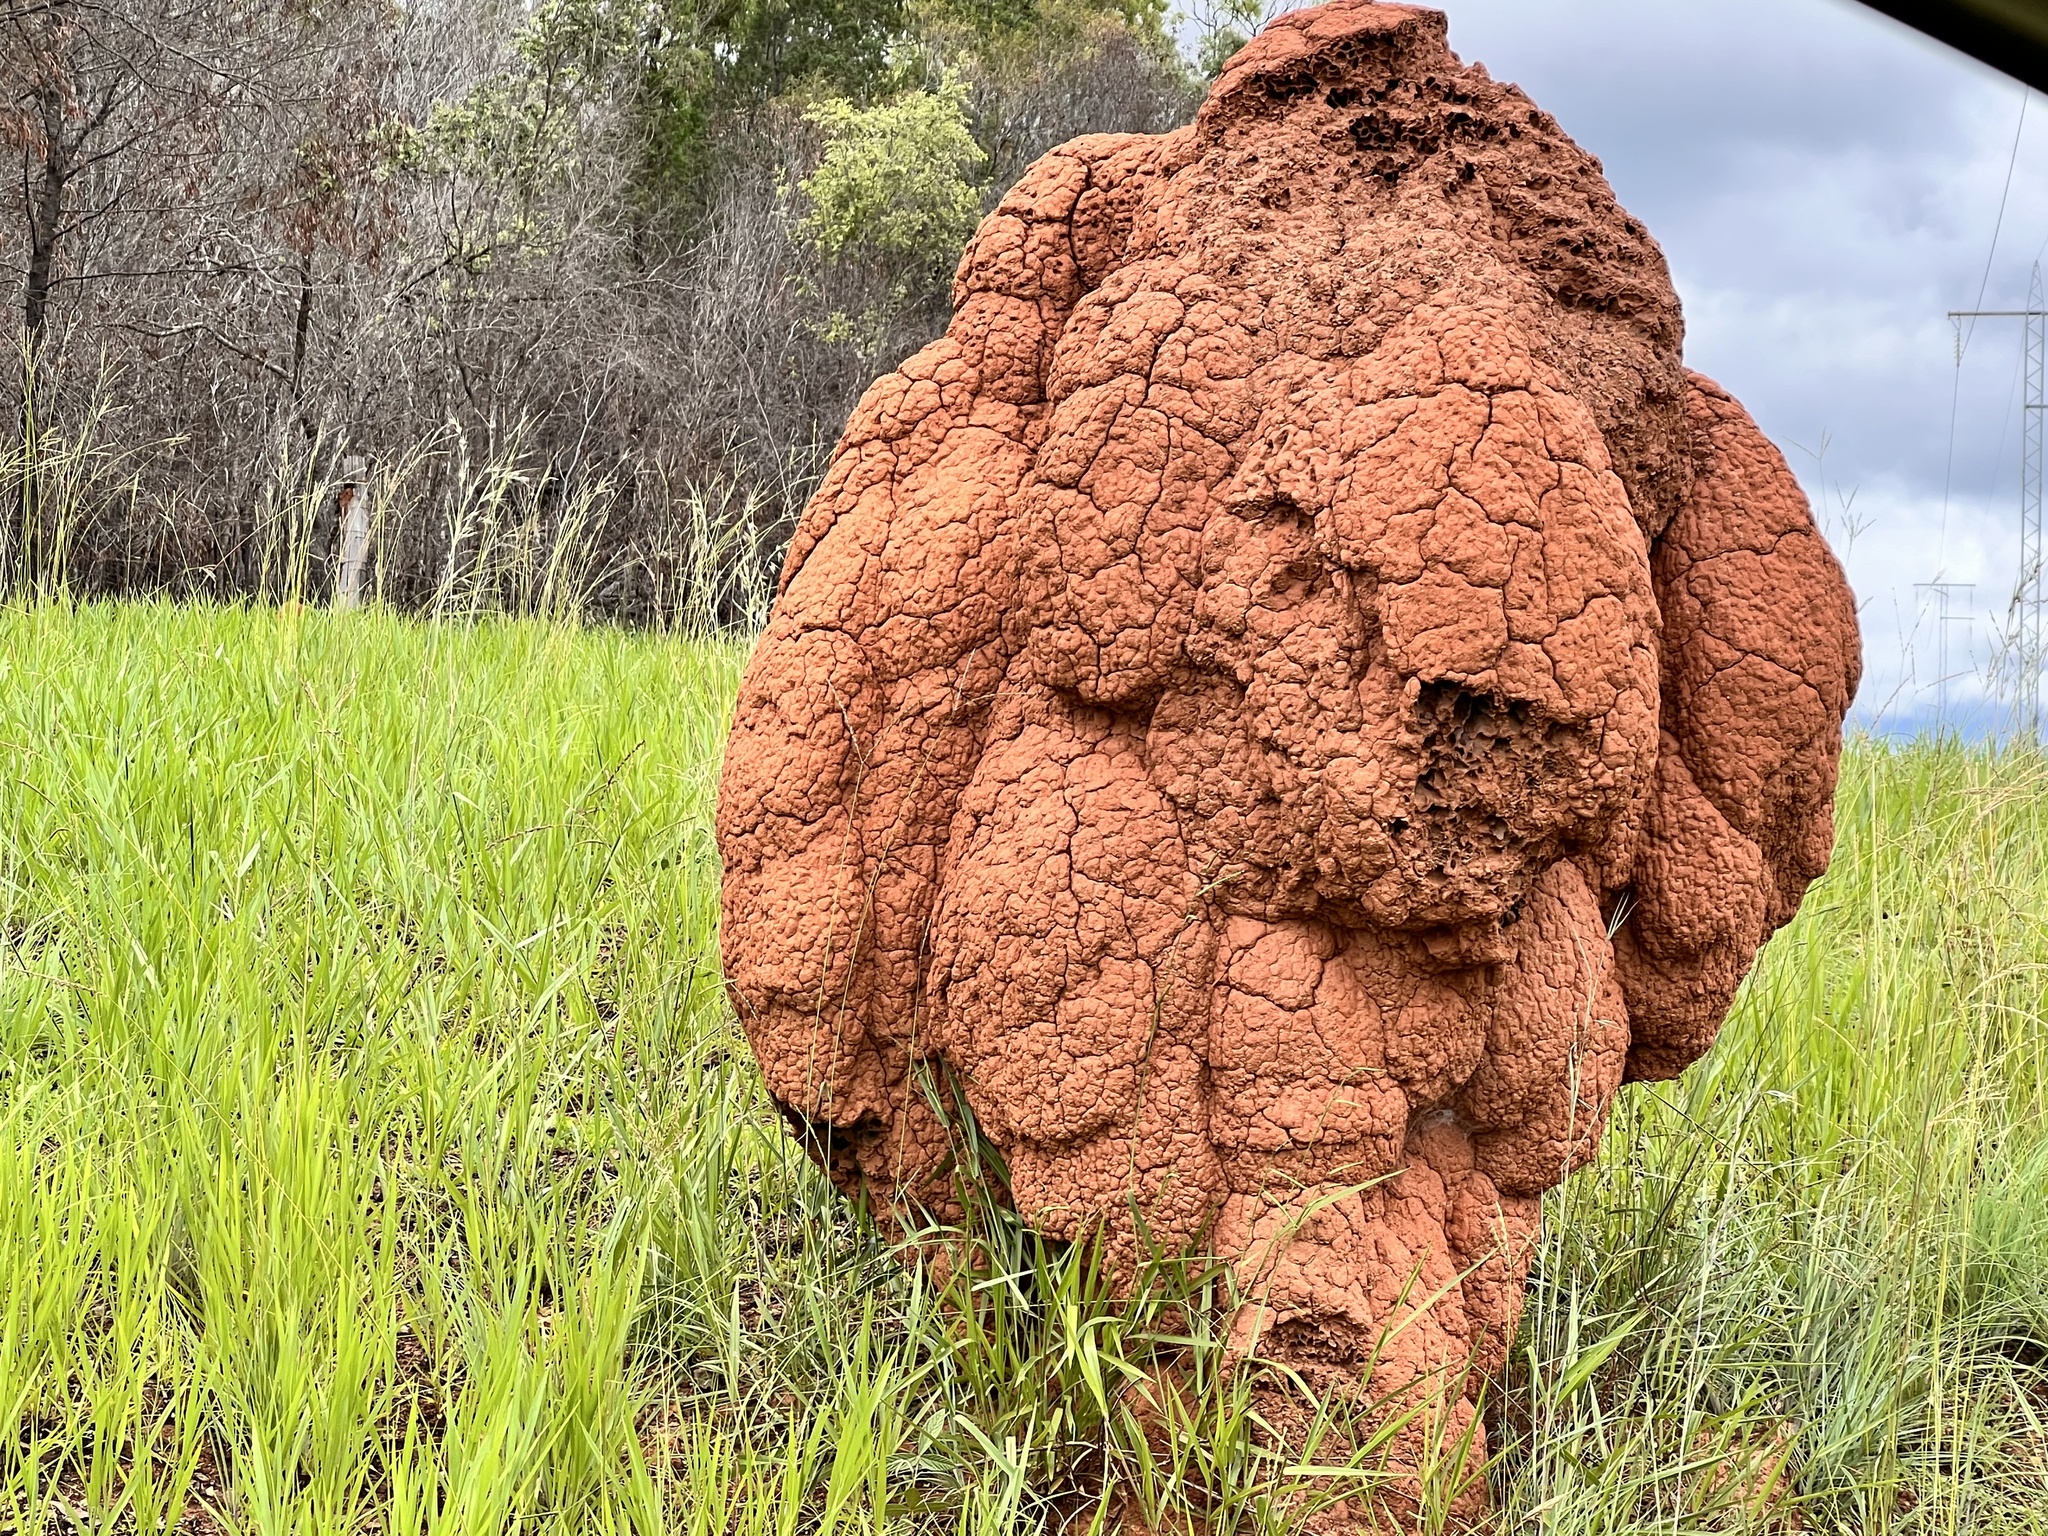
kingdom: Animalia
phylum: Arthropoda
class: Insecta
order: Blattodea
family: Termitidae
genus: Nasutitermes
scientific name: Nasutitermes triodiae
